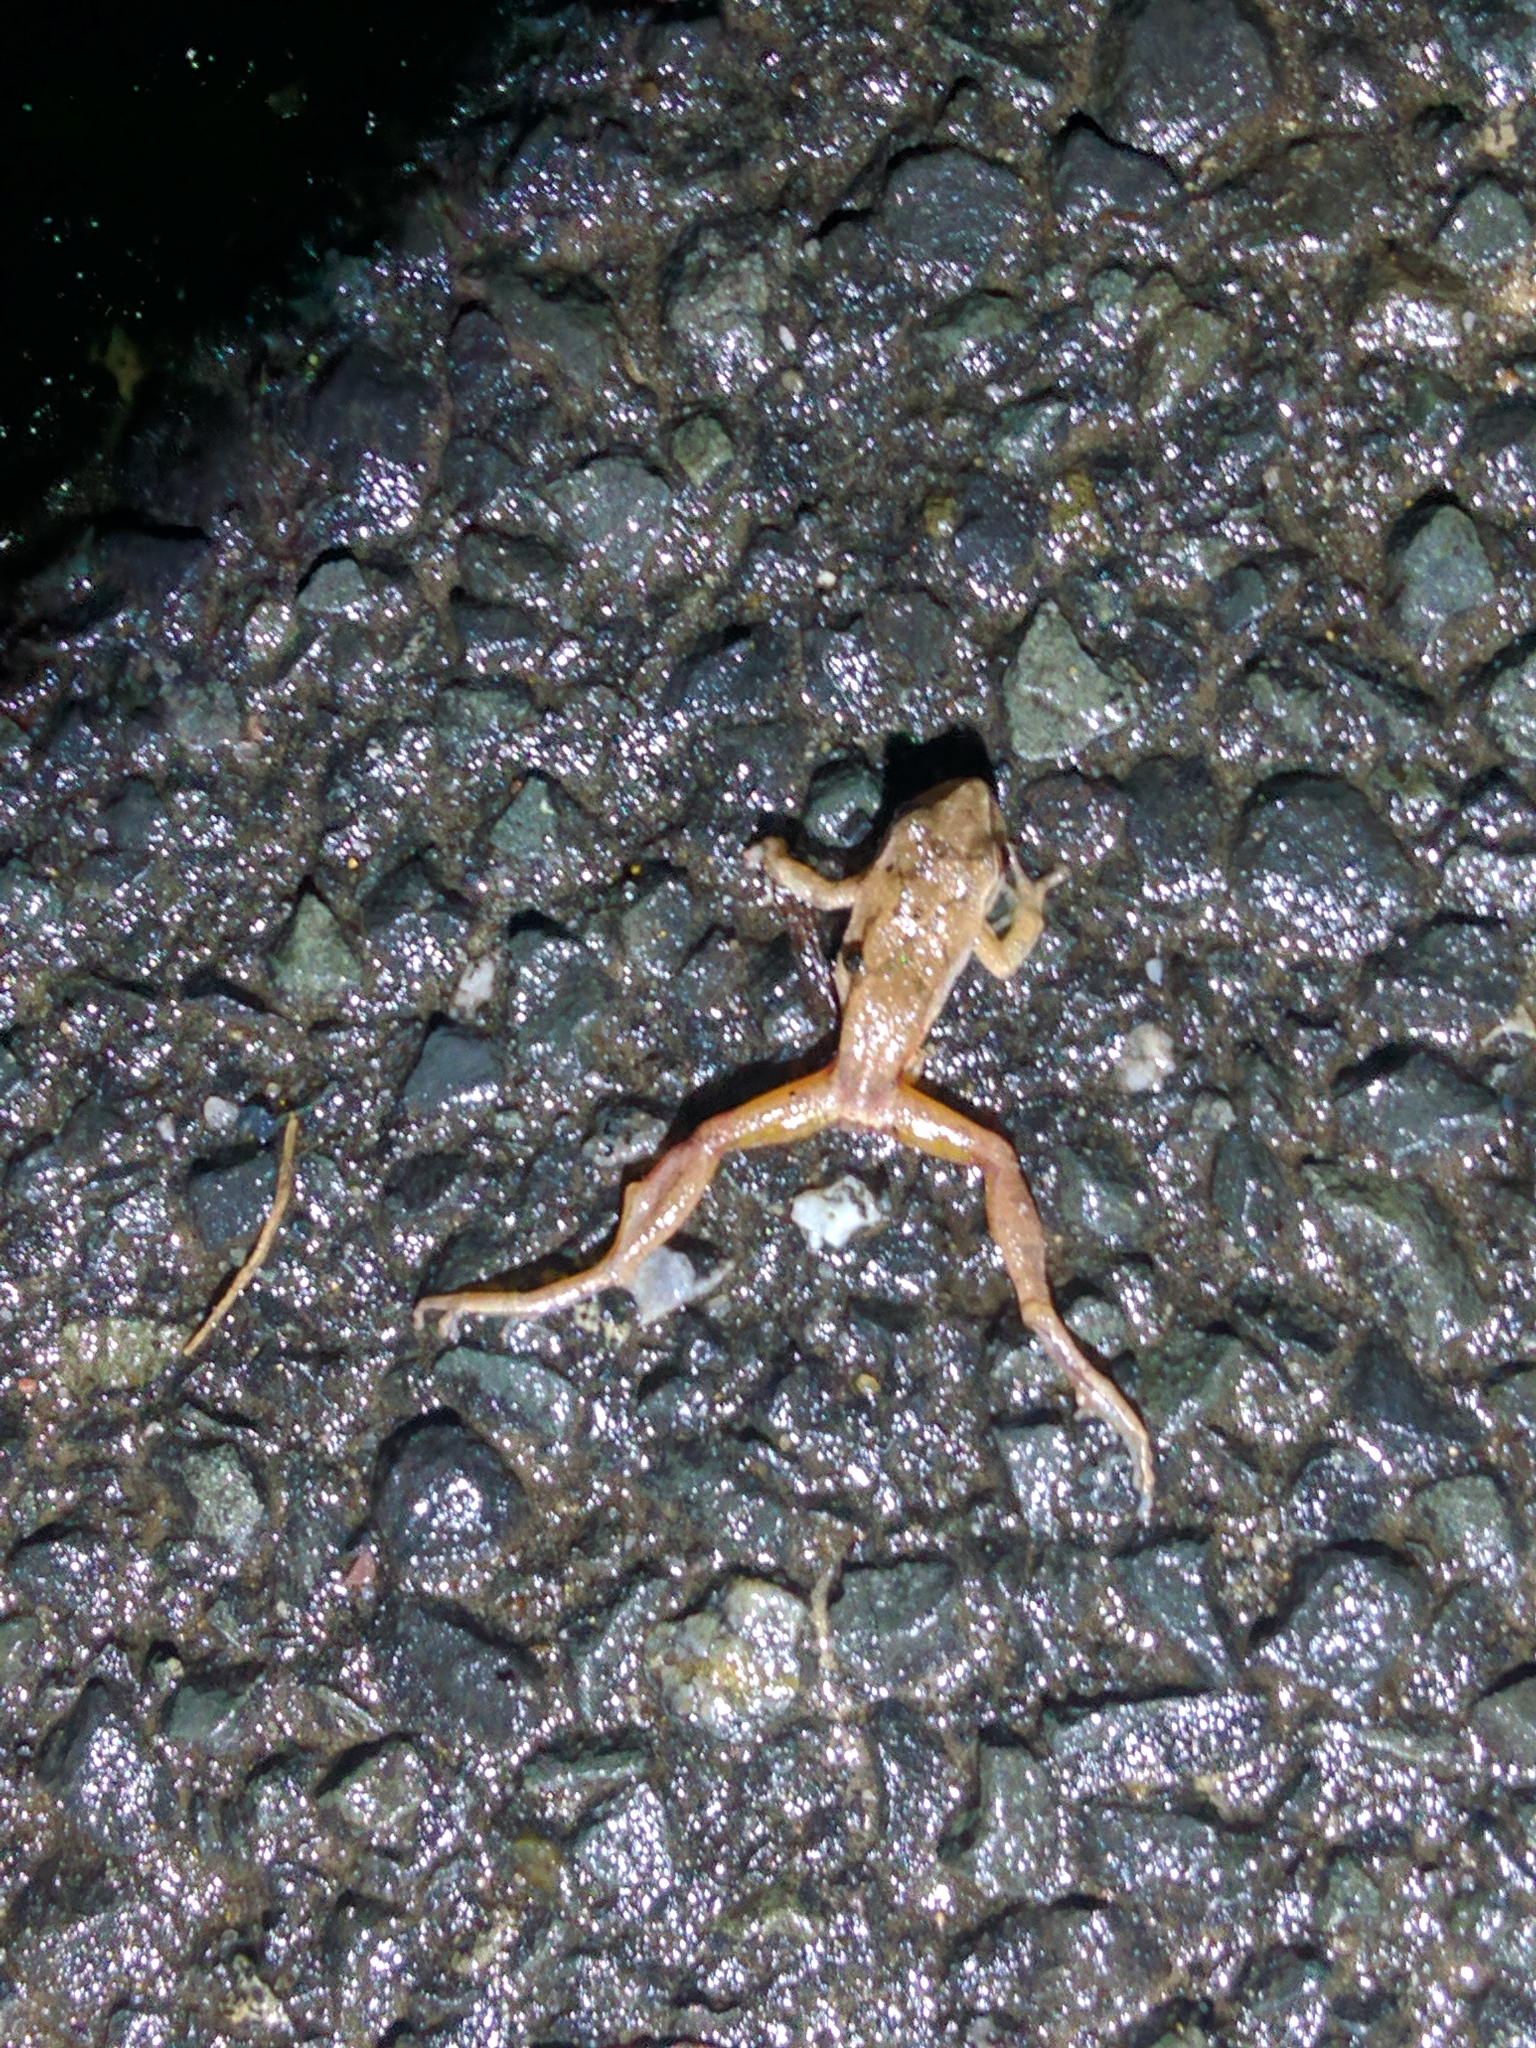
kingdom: Animalia
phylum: Chordata
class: Amphibia
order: Anura
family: Hylidae
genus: Pseudacris
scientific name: Pseudacris crucifer
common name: Spring peeper
